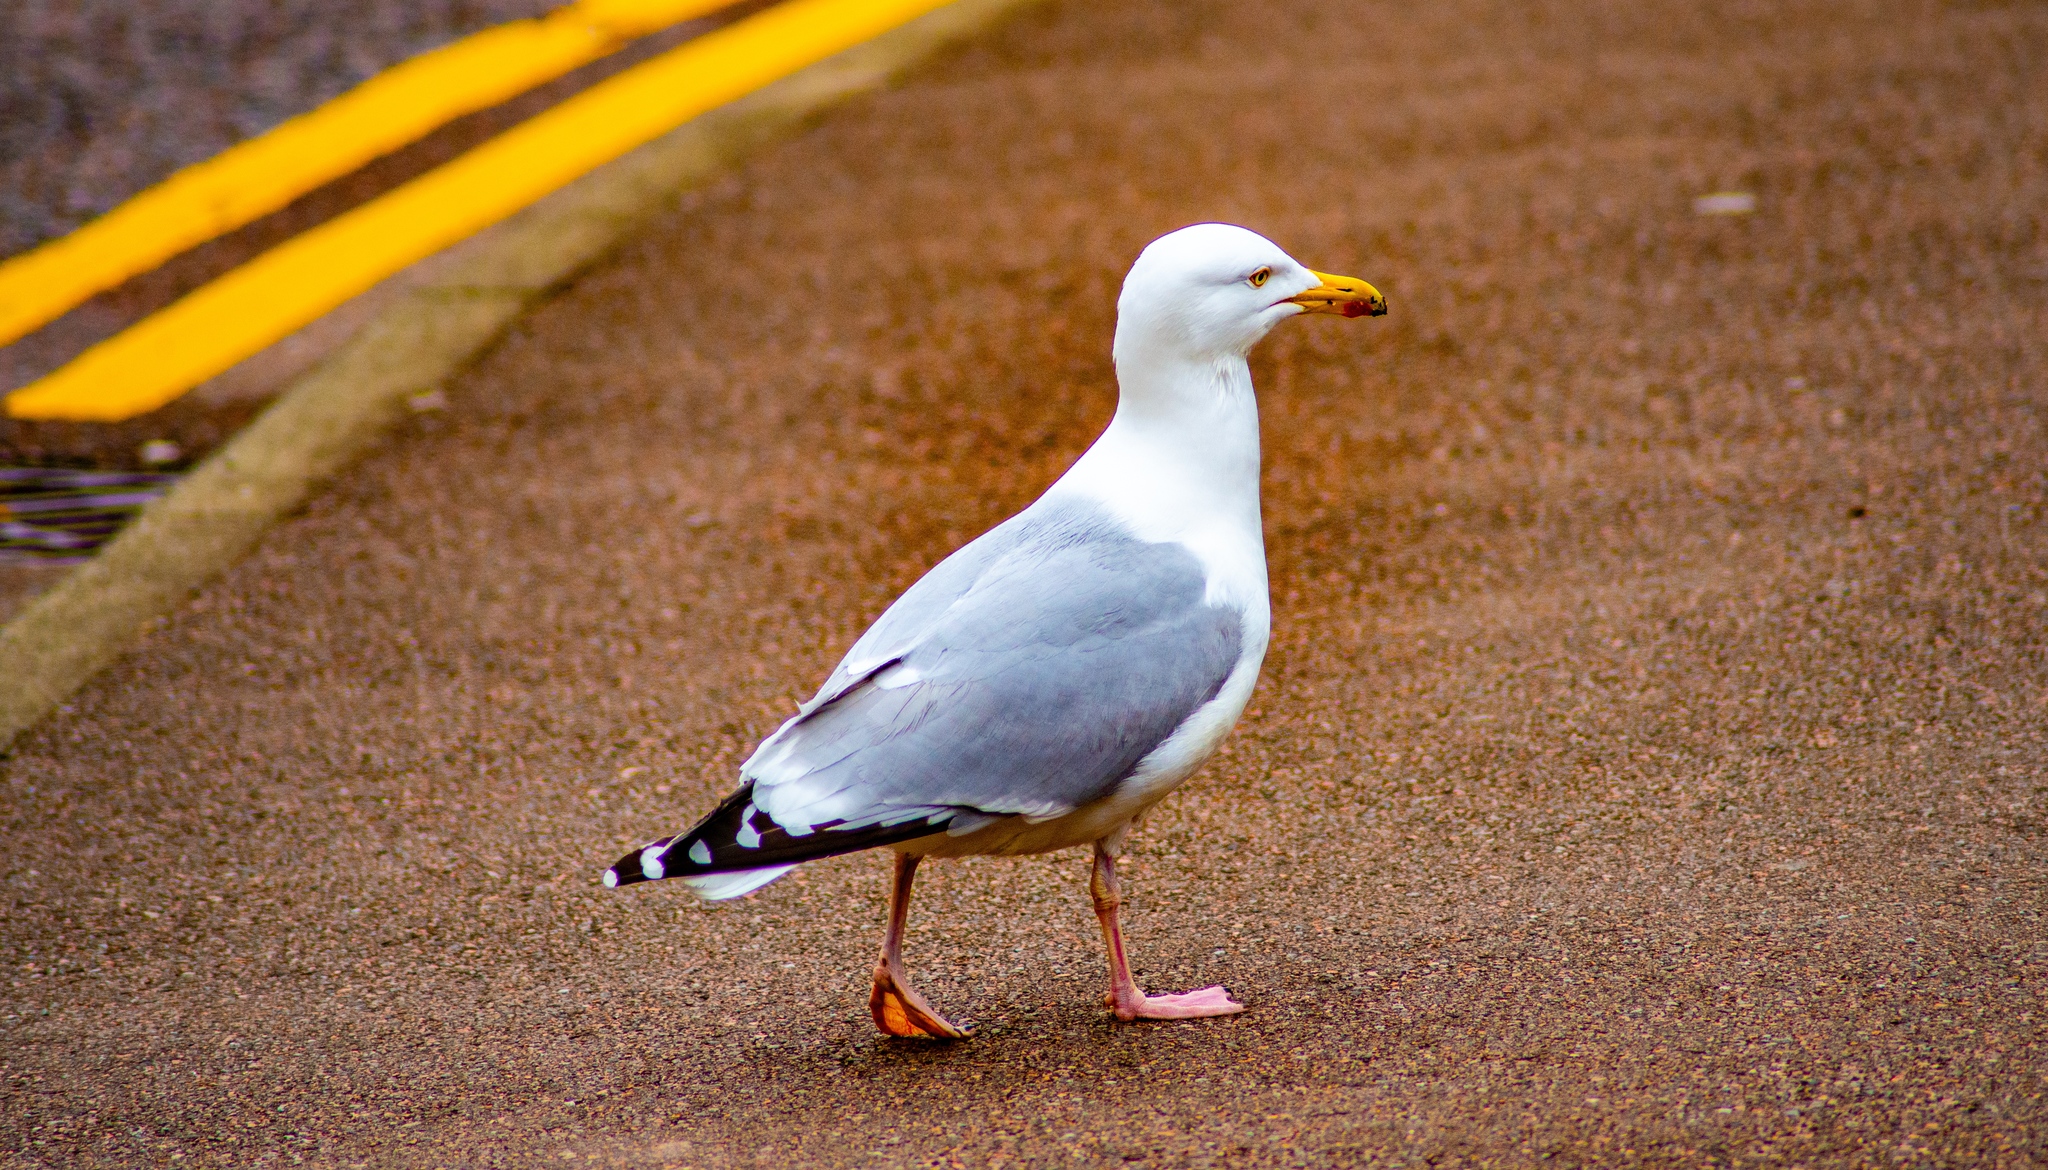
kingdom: Animalia
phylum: Chordata
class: Aves
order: Charadriiformes
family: Laridae
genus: Larus
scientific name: Larus argentatus
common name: Herring gull
